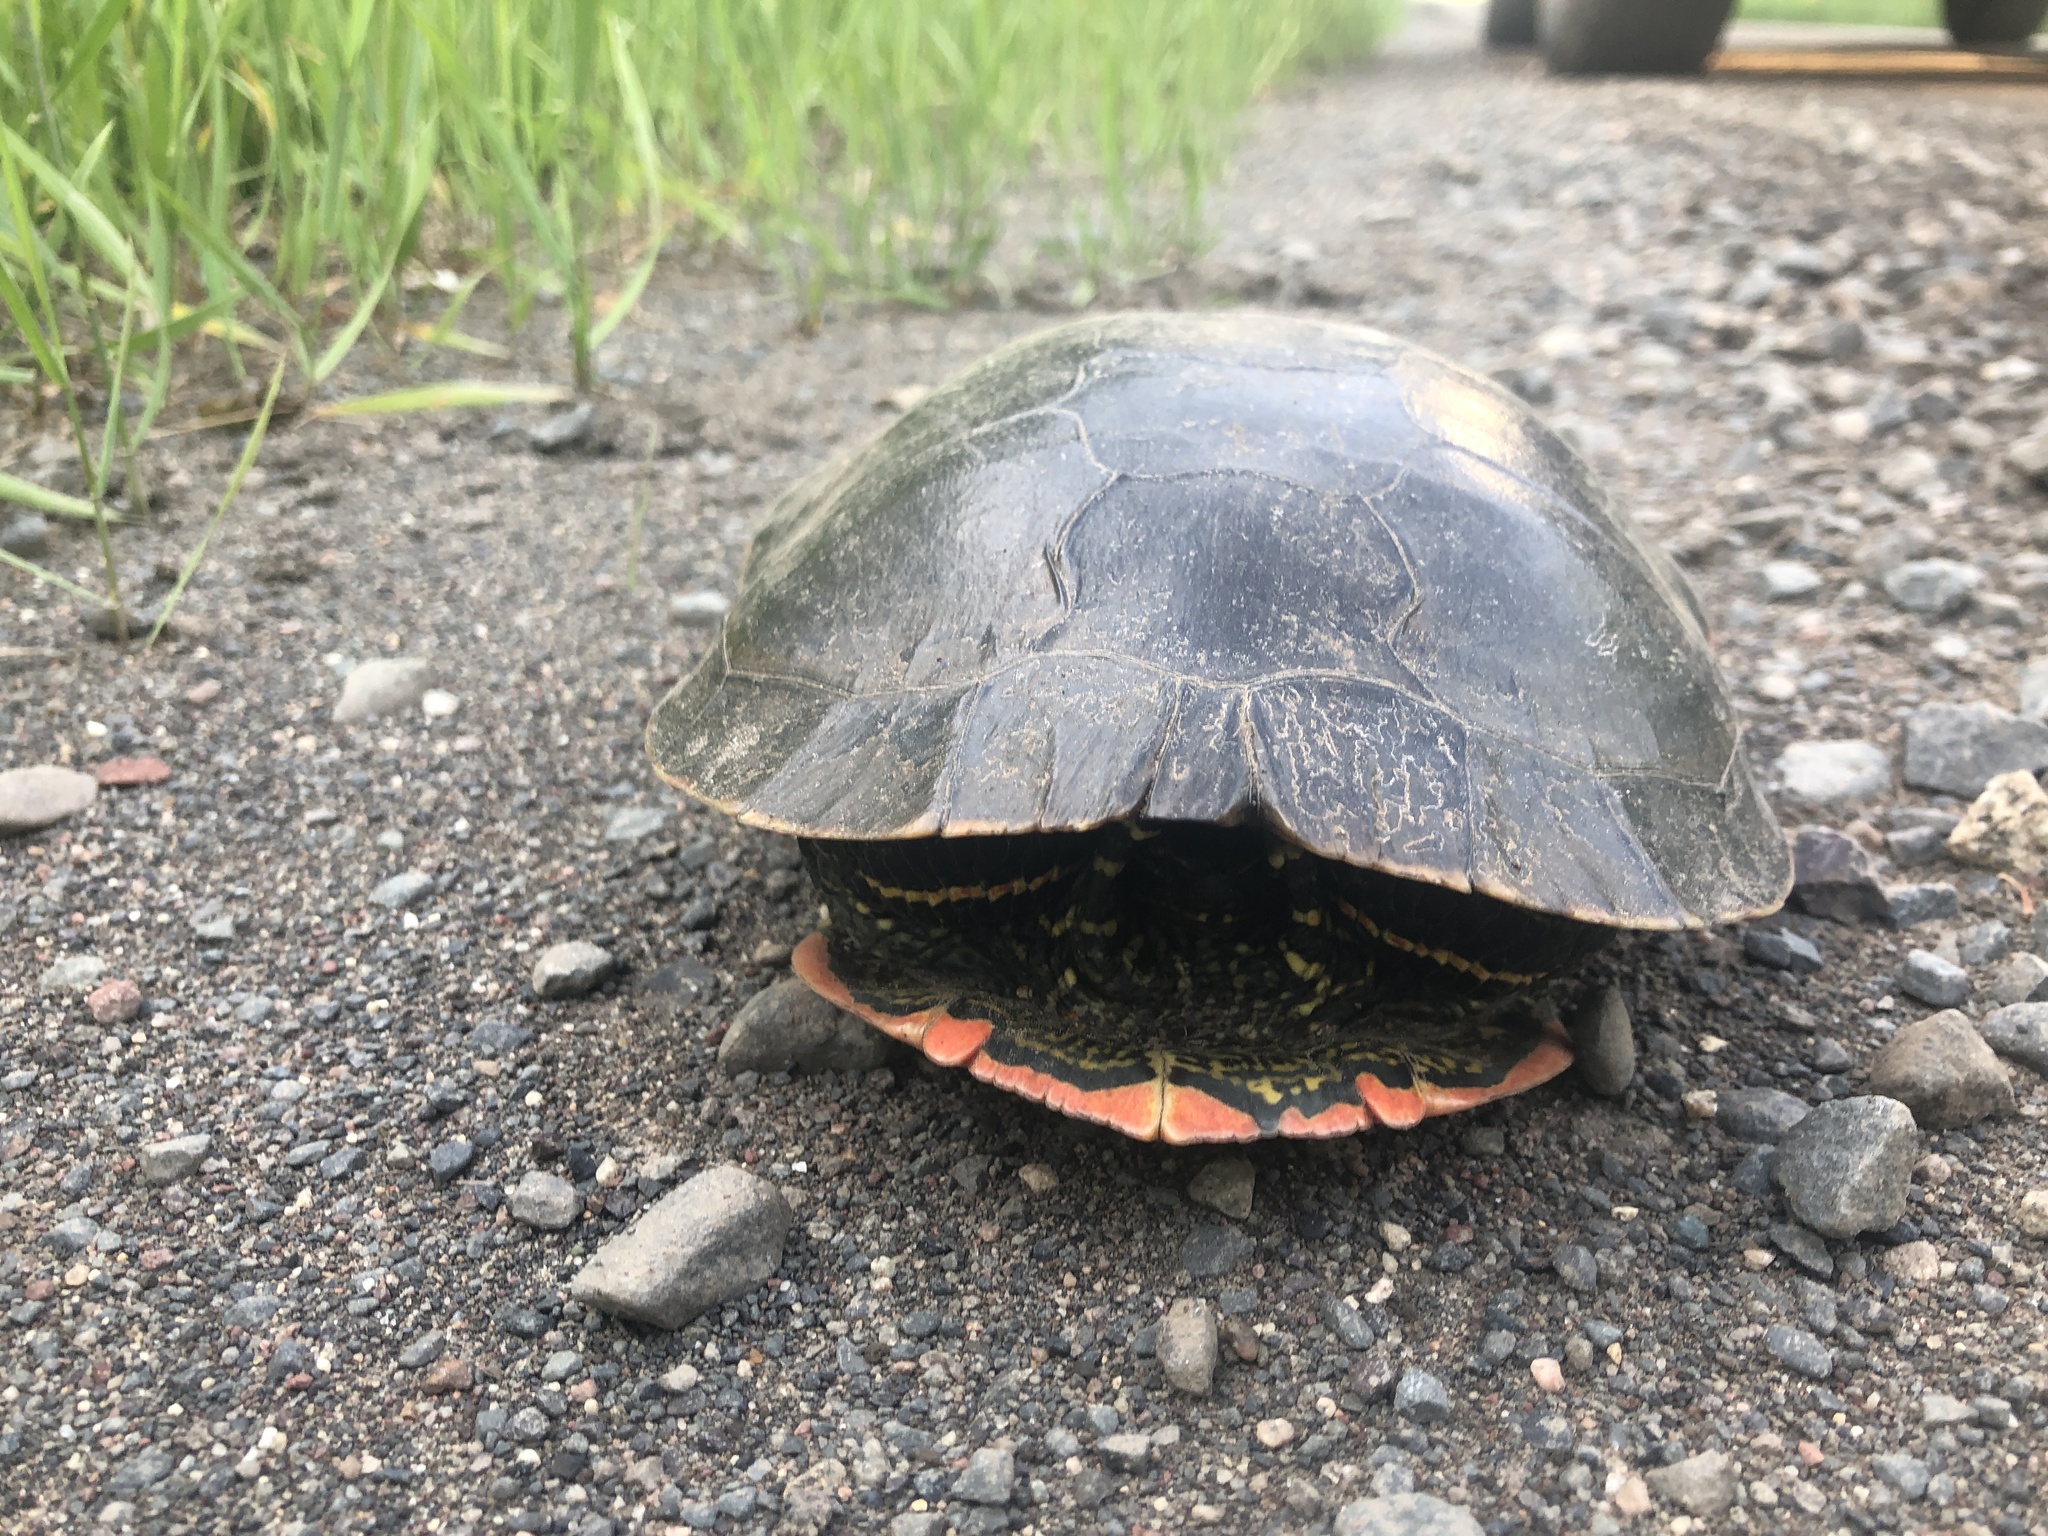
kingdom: Animalia
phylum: Chordata
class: Testudines
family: Emydidae
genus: Chrysemys
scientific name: Chrysemys picta
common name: Painted turtle
